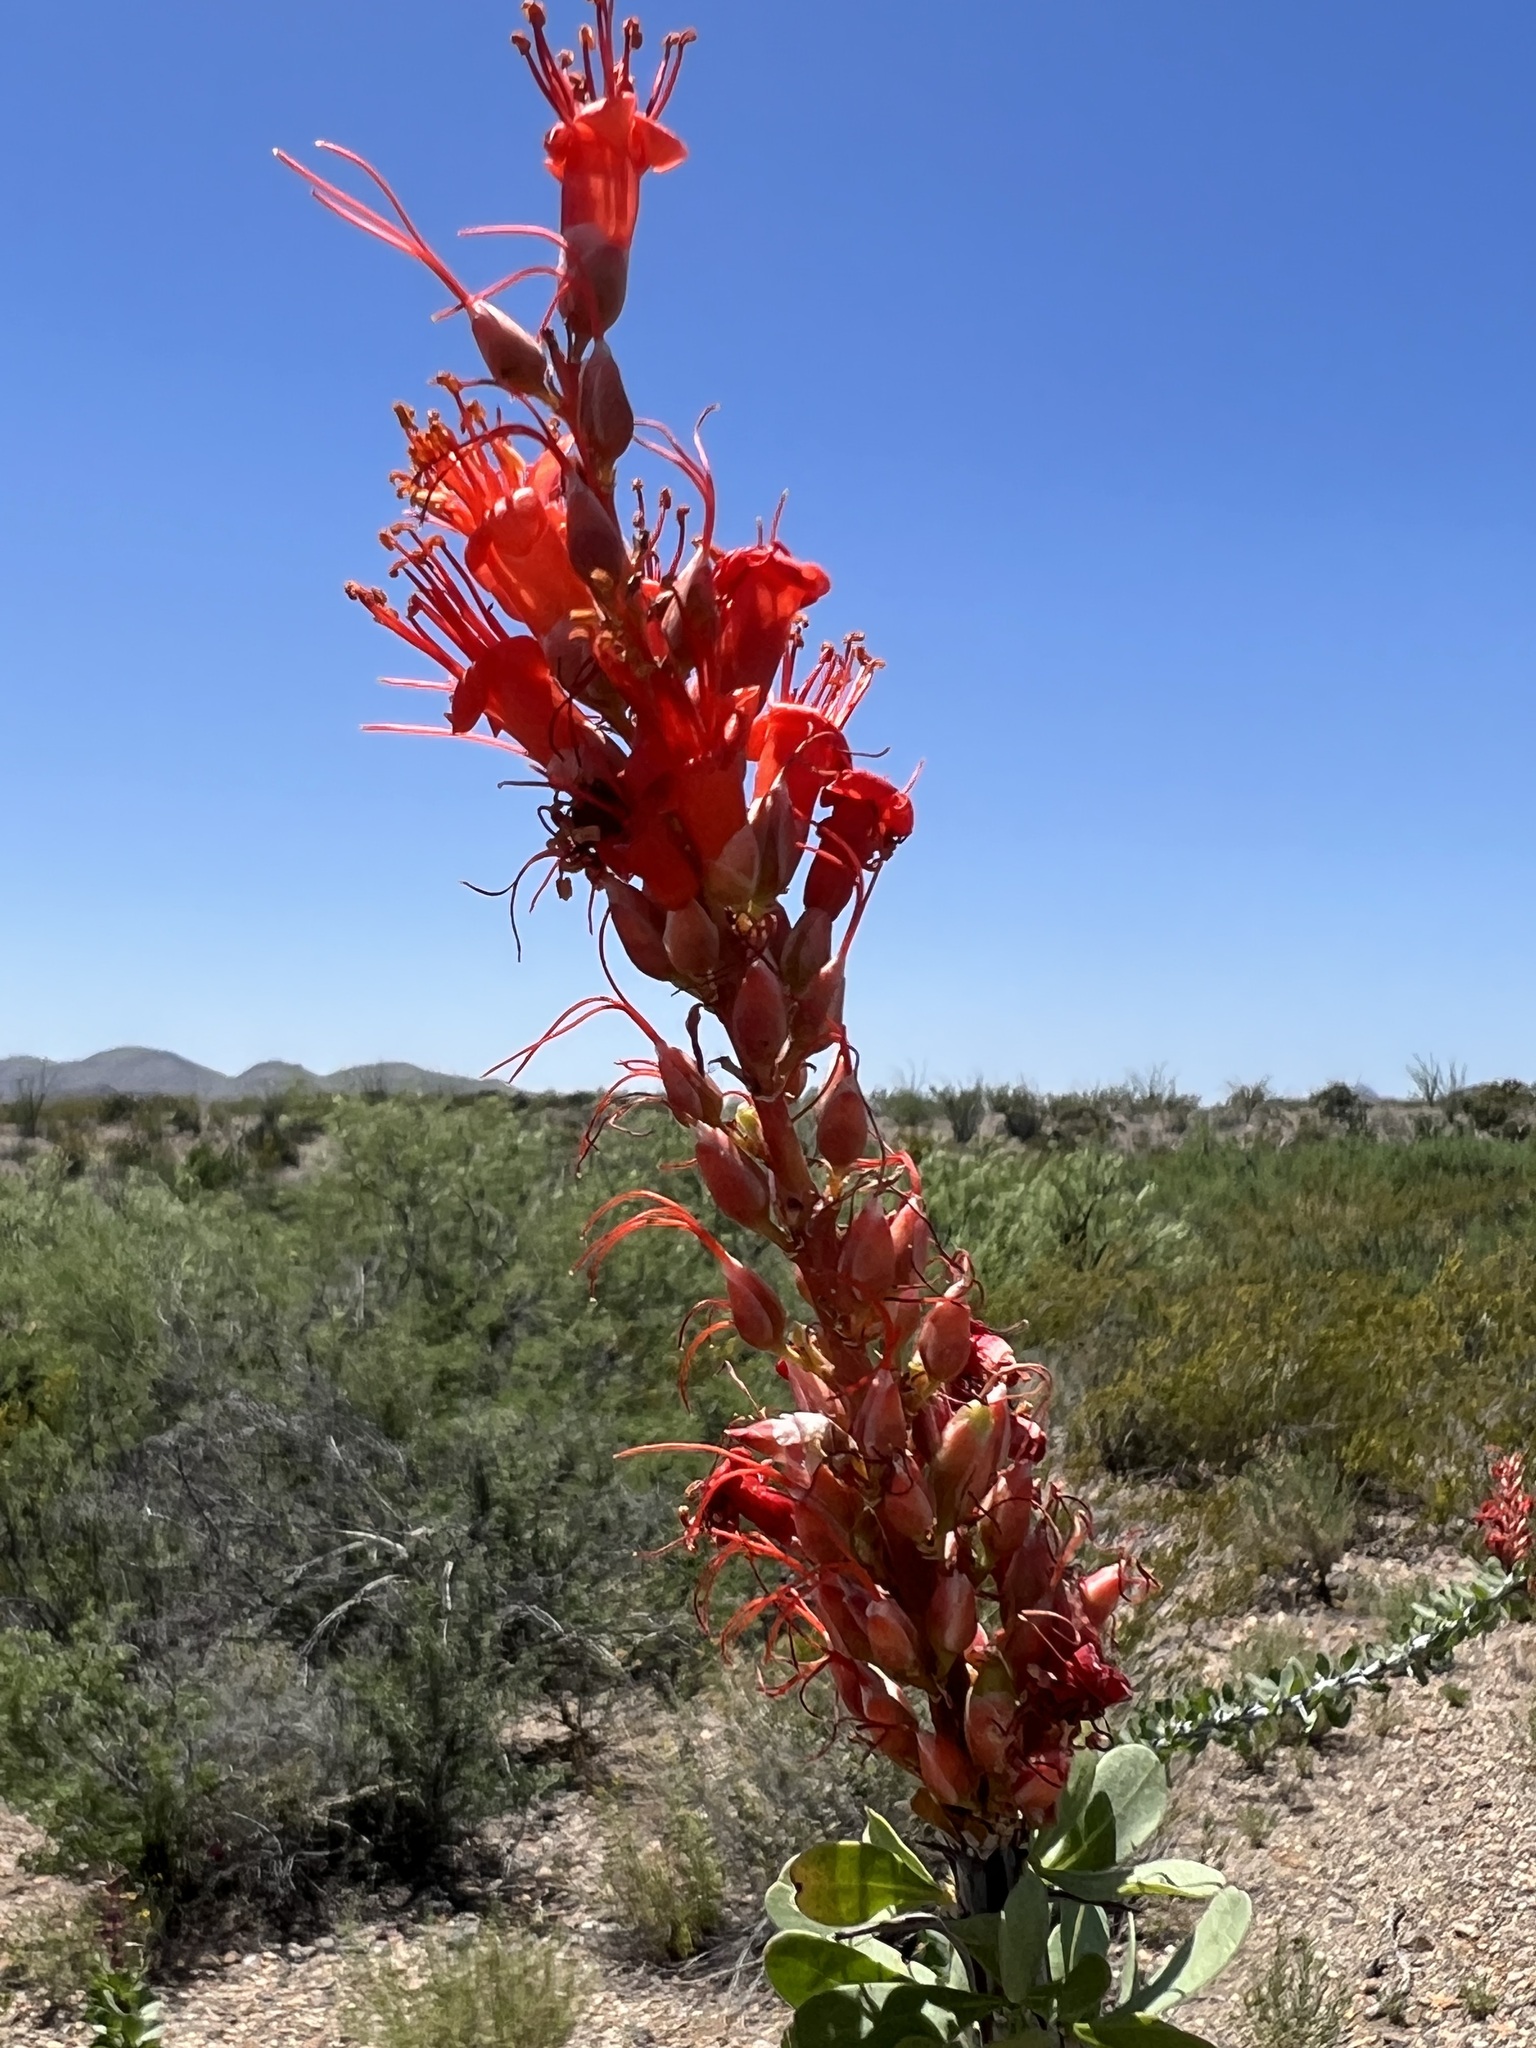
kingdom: Plantae
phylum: Tracheophyta
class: Magnoliopsida
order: Ericales
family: Fouquieriaceae
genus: Fouquieria
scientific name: Fouquieria splendens
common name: Vine-cactus
